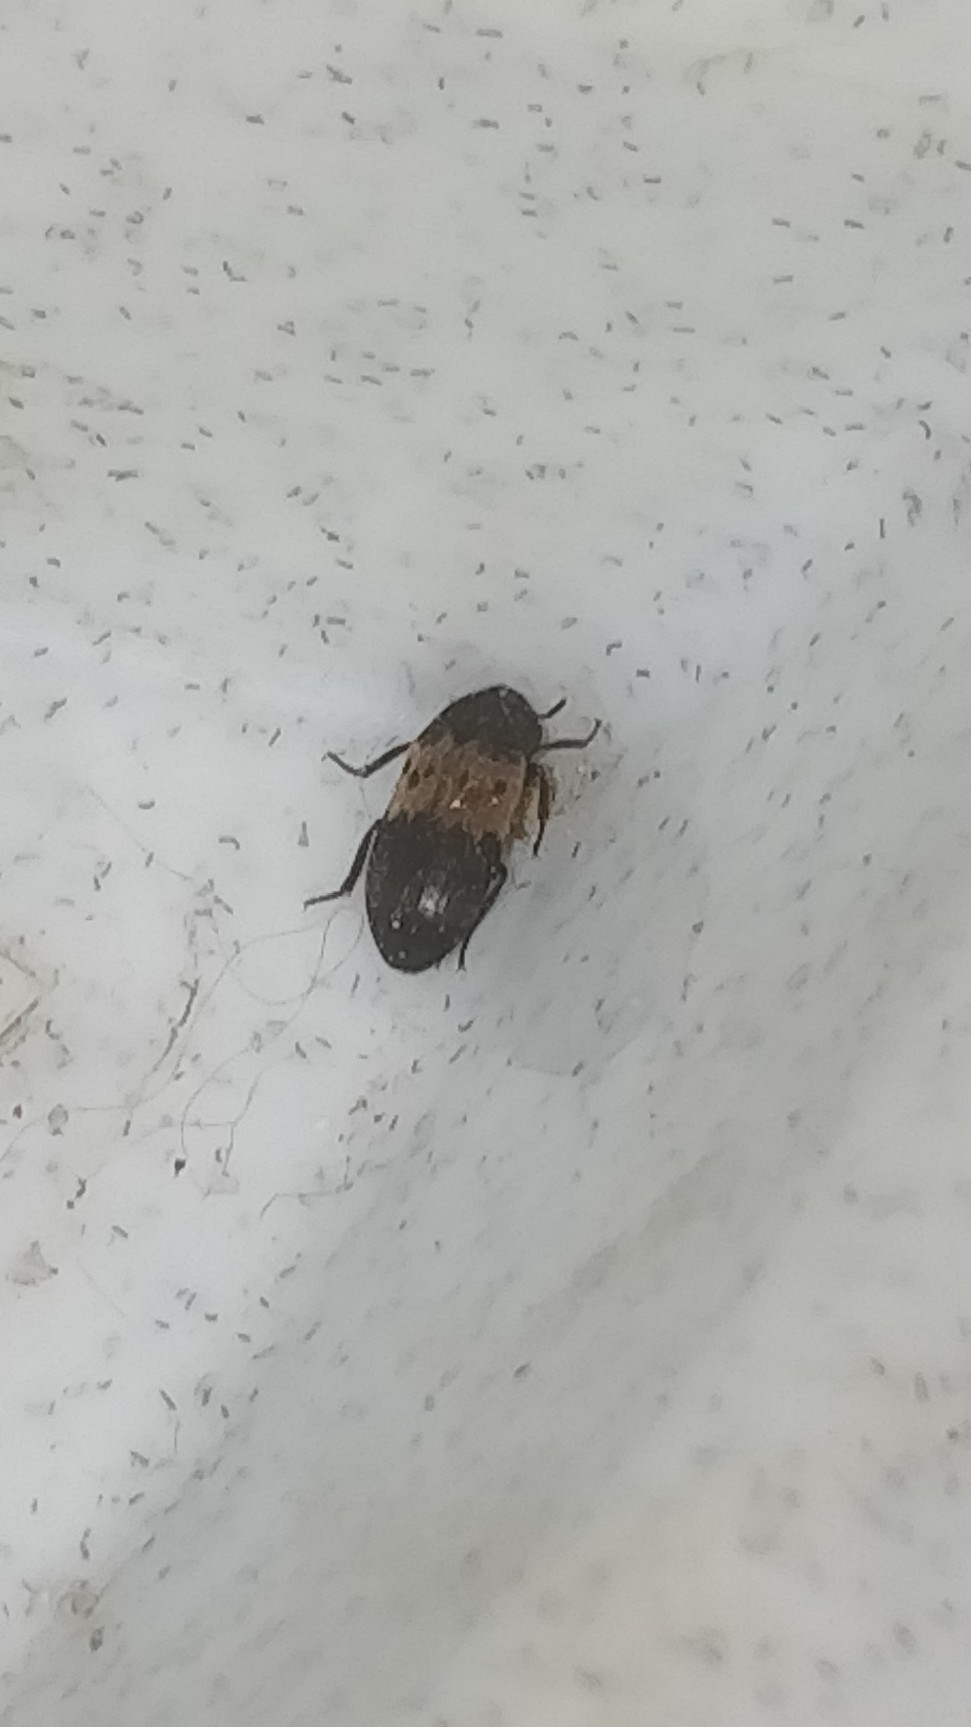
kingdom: Animalia
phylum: Arthropoda
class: Insecta
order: Coleoptera
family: Dermestidae
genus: Dermestes
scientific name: Dermestes lardarius
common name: Larder beetle
